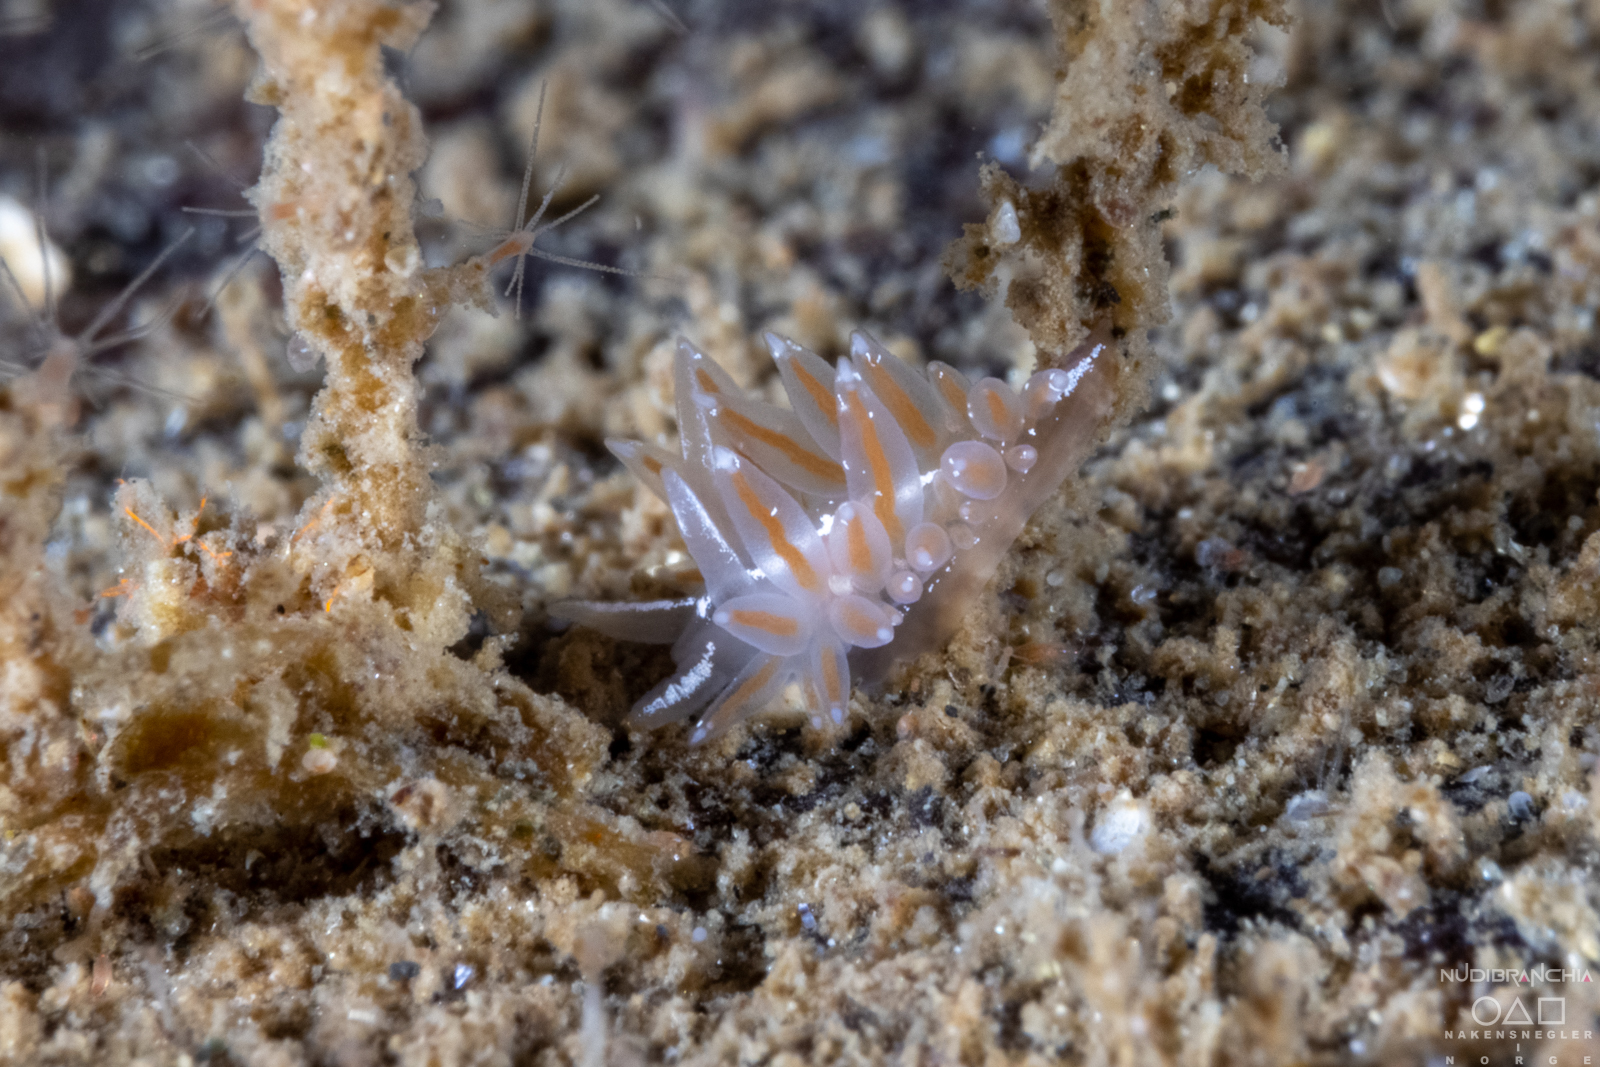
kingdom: Animalia
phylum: Mollusca
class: Gastropoda
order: Nudibranchia
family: Coryphellidae
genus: Coryphella
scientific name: Coryphella monicae
